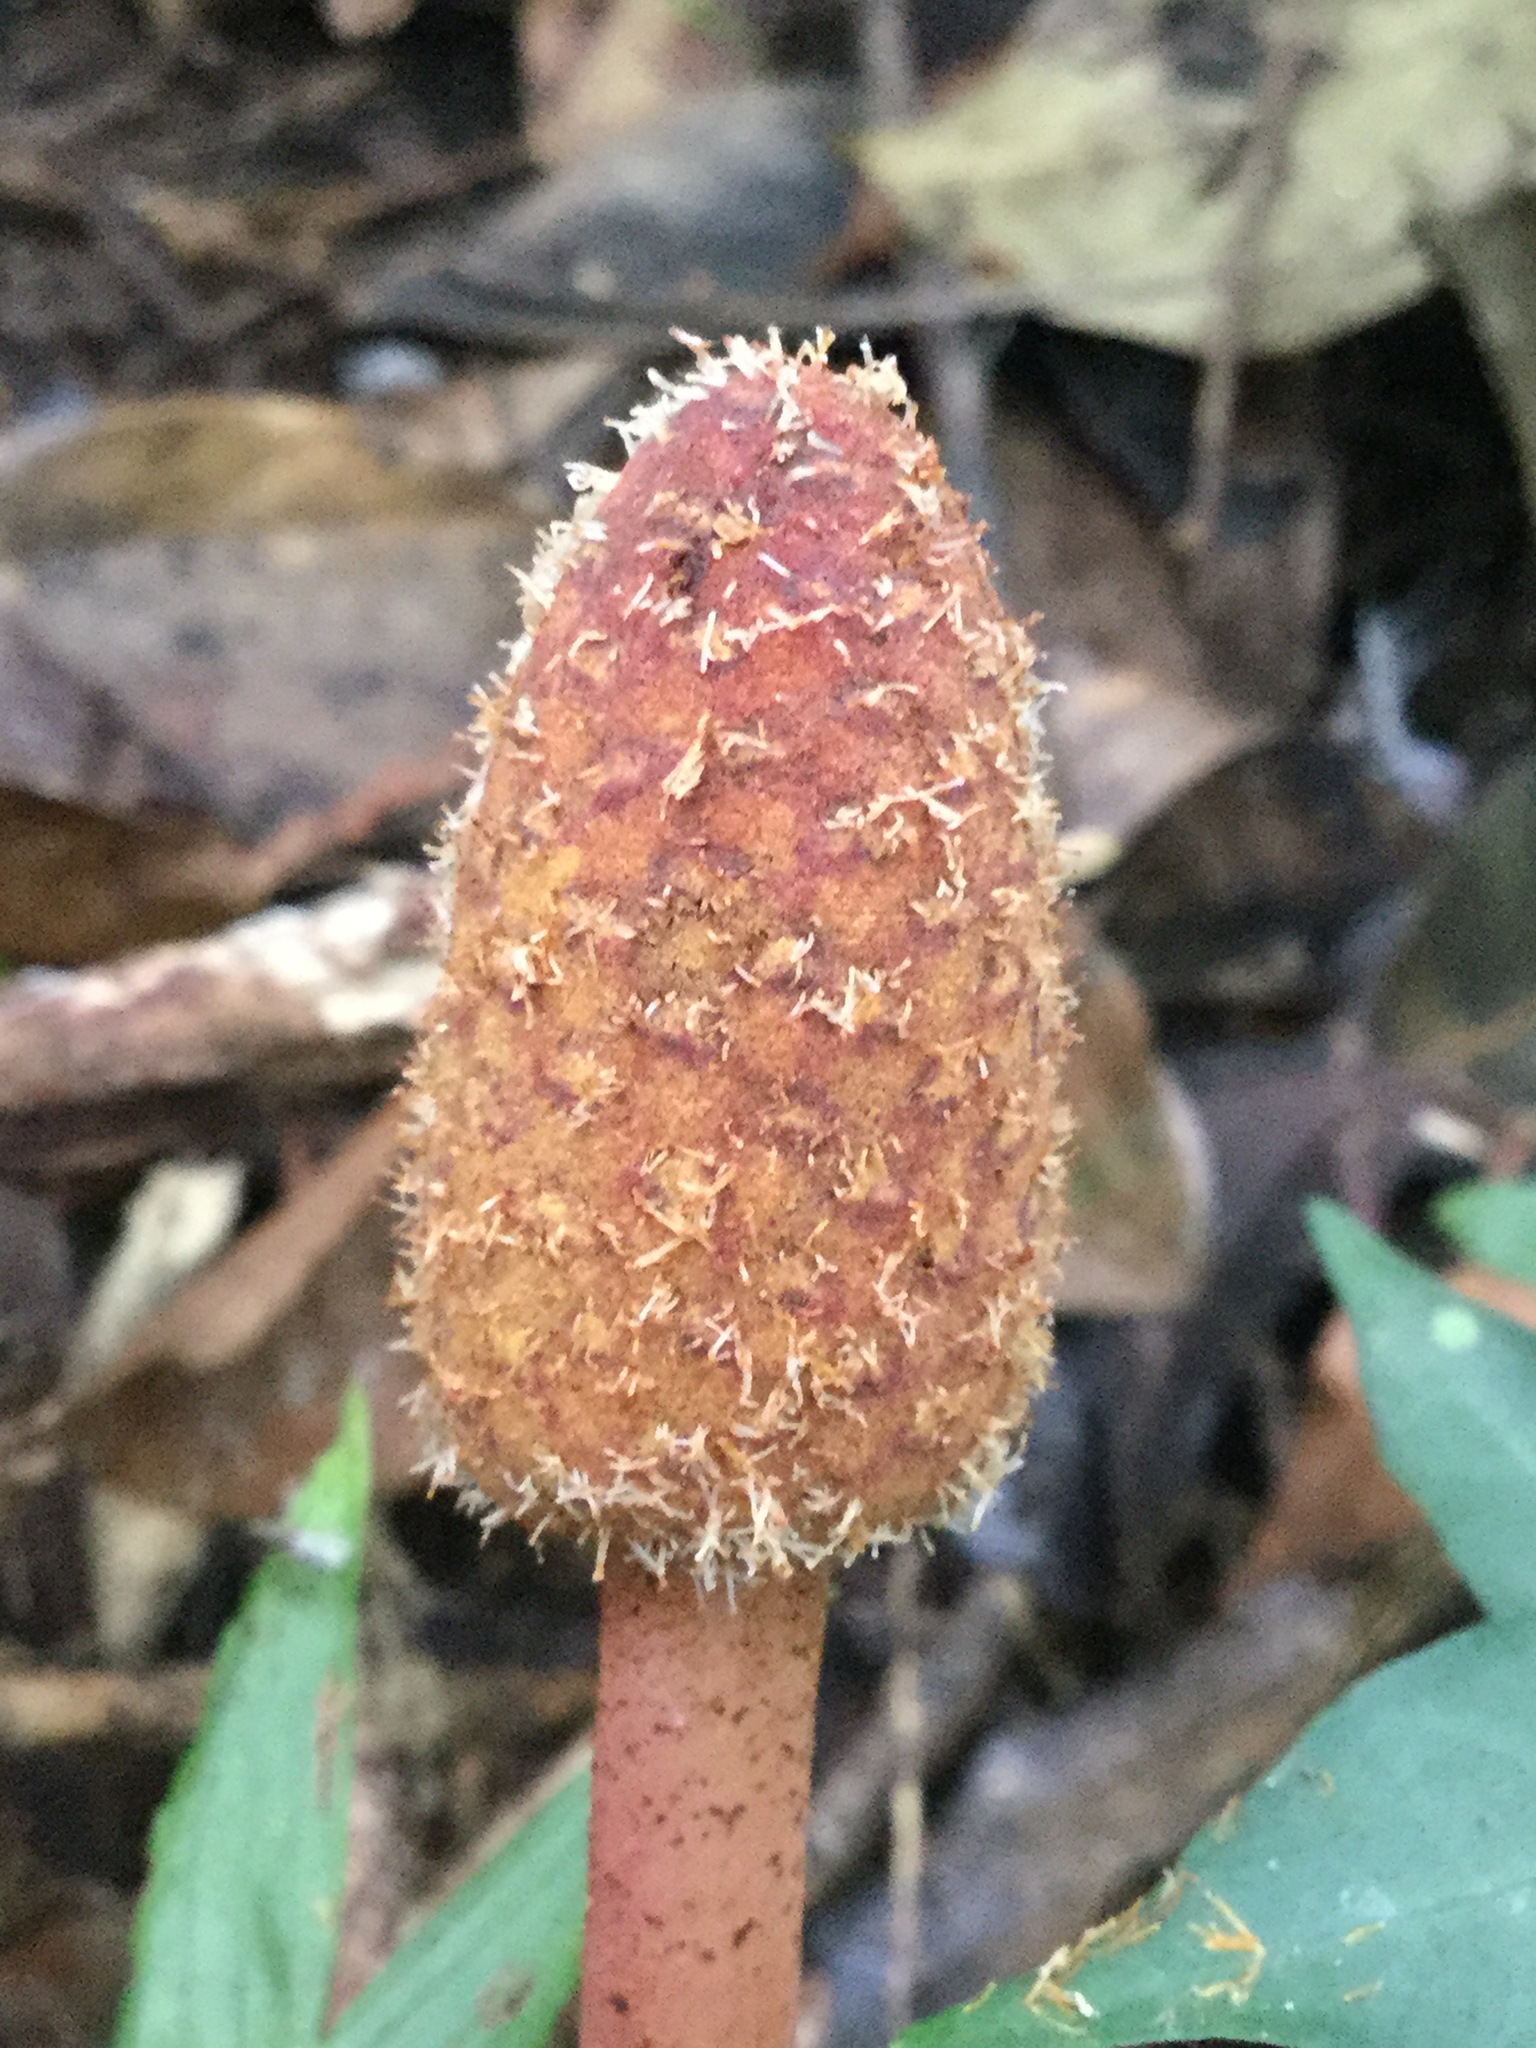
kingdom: Plantae
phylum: Tracheophyta
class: Magnoliopsida
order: Santalales
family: Balanophoraceae
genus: Helosis
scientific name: Helosis cayennensis
